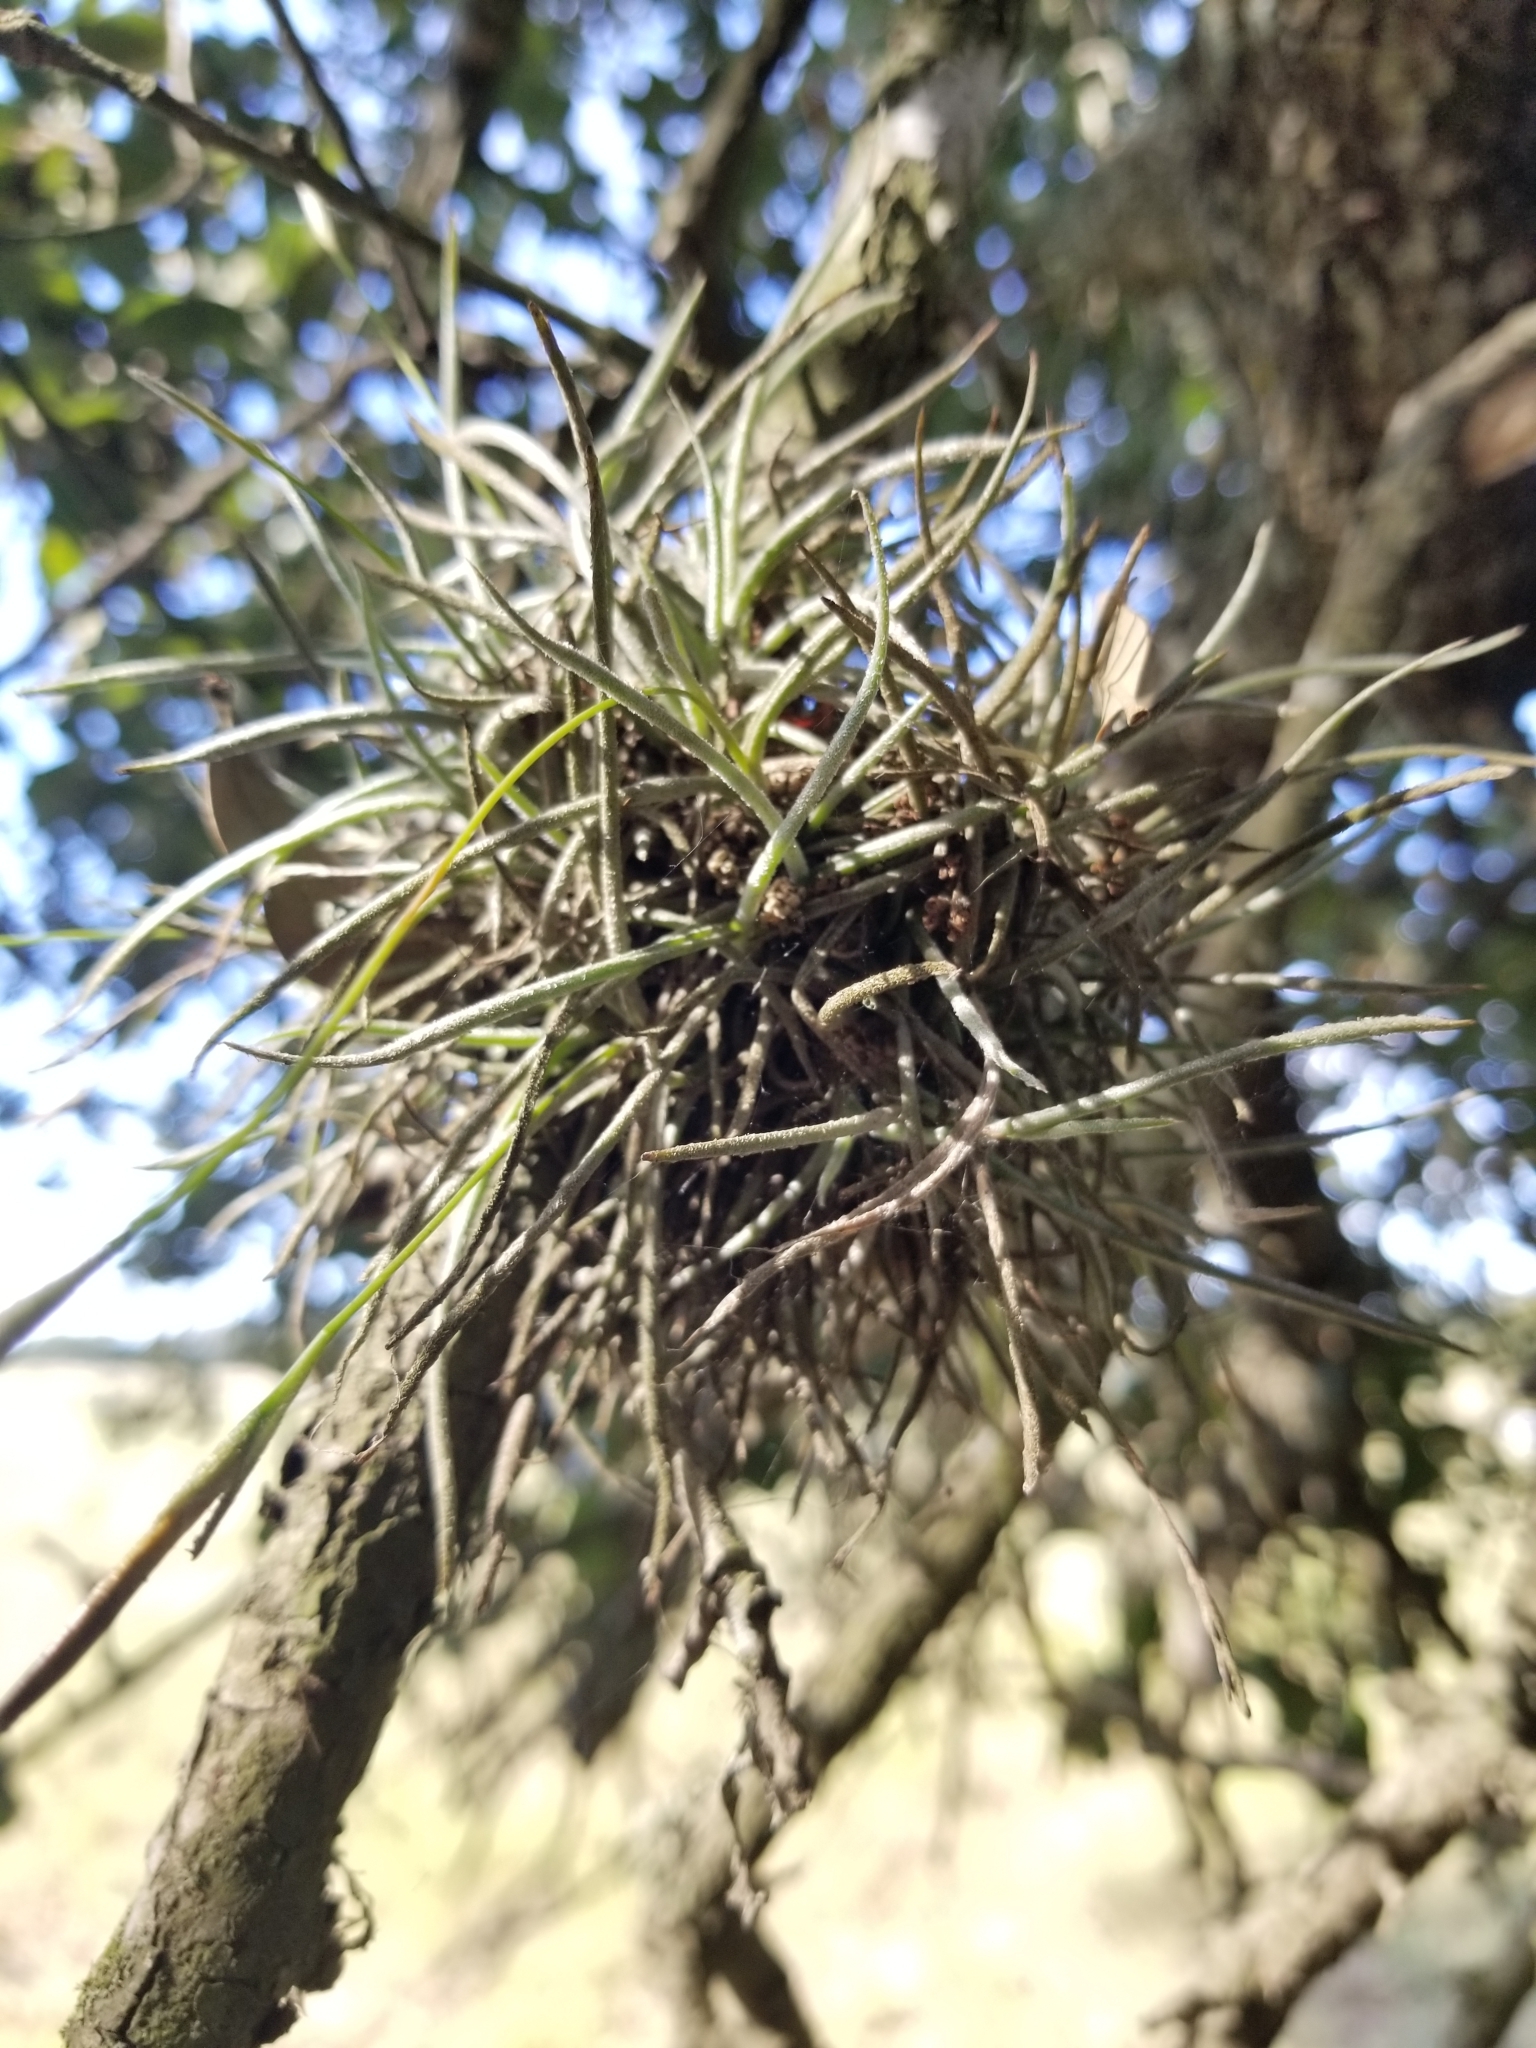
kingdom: Plantae
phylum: Tracheophyta
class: Liliopsida
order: Poales
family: Bromeliaceae
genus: Tillandsia
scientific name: Tillandsia recurvata
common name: Small ballmoss
